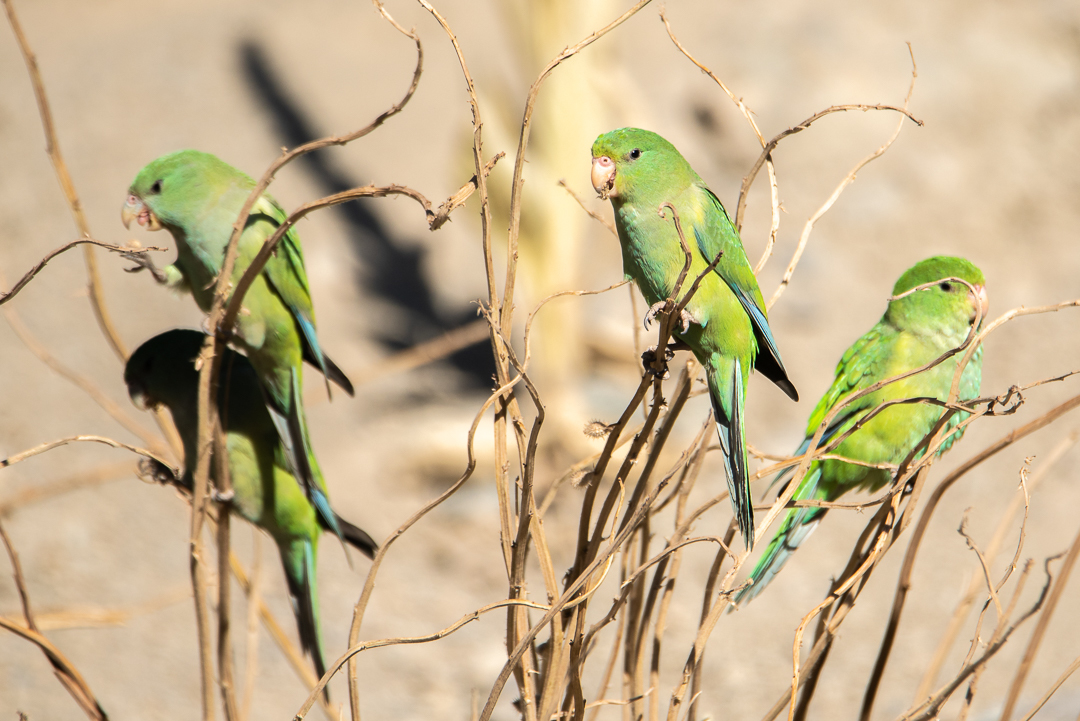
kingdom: Animalia
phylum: Chordata
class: Aves
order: Psittaciformes
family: Psittacidae
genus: Psilopsiagon
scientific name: Psilopsiagon aurifrons
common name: Mountain parakeet
